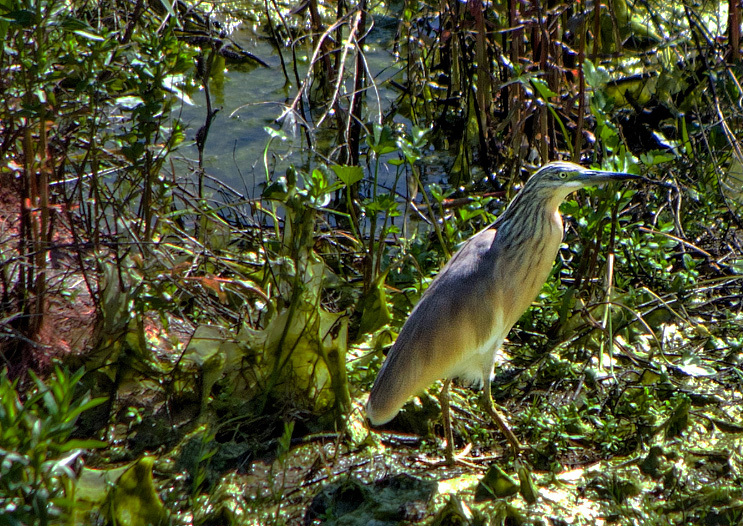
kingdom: Animalia
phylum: Chordata
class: Aves
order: Pelecaniformes
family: Ardeidae
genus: Ardeola
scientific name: Ardeola ralloides
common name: Squacco heron
